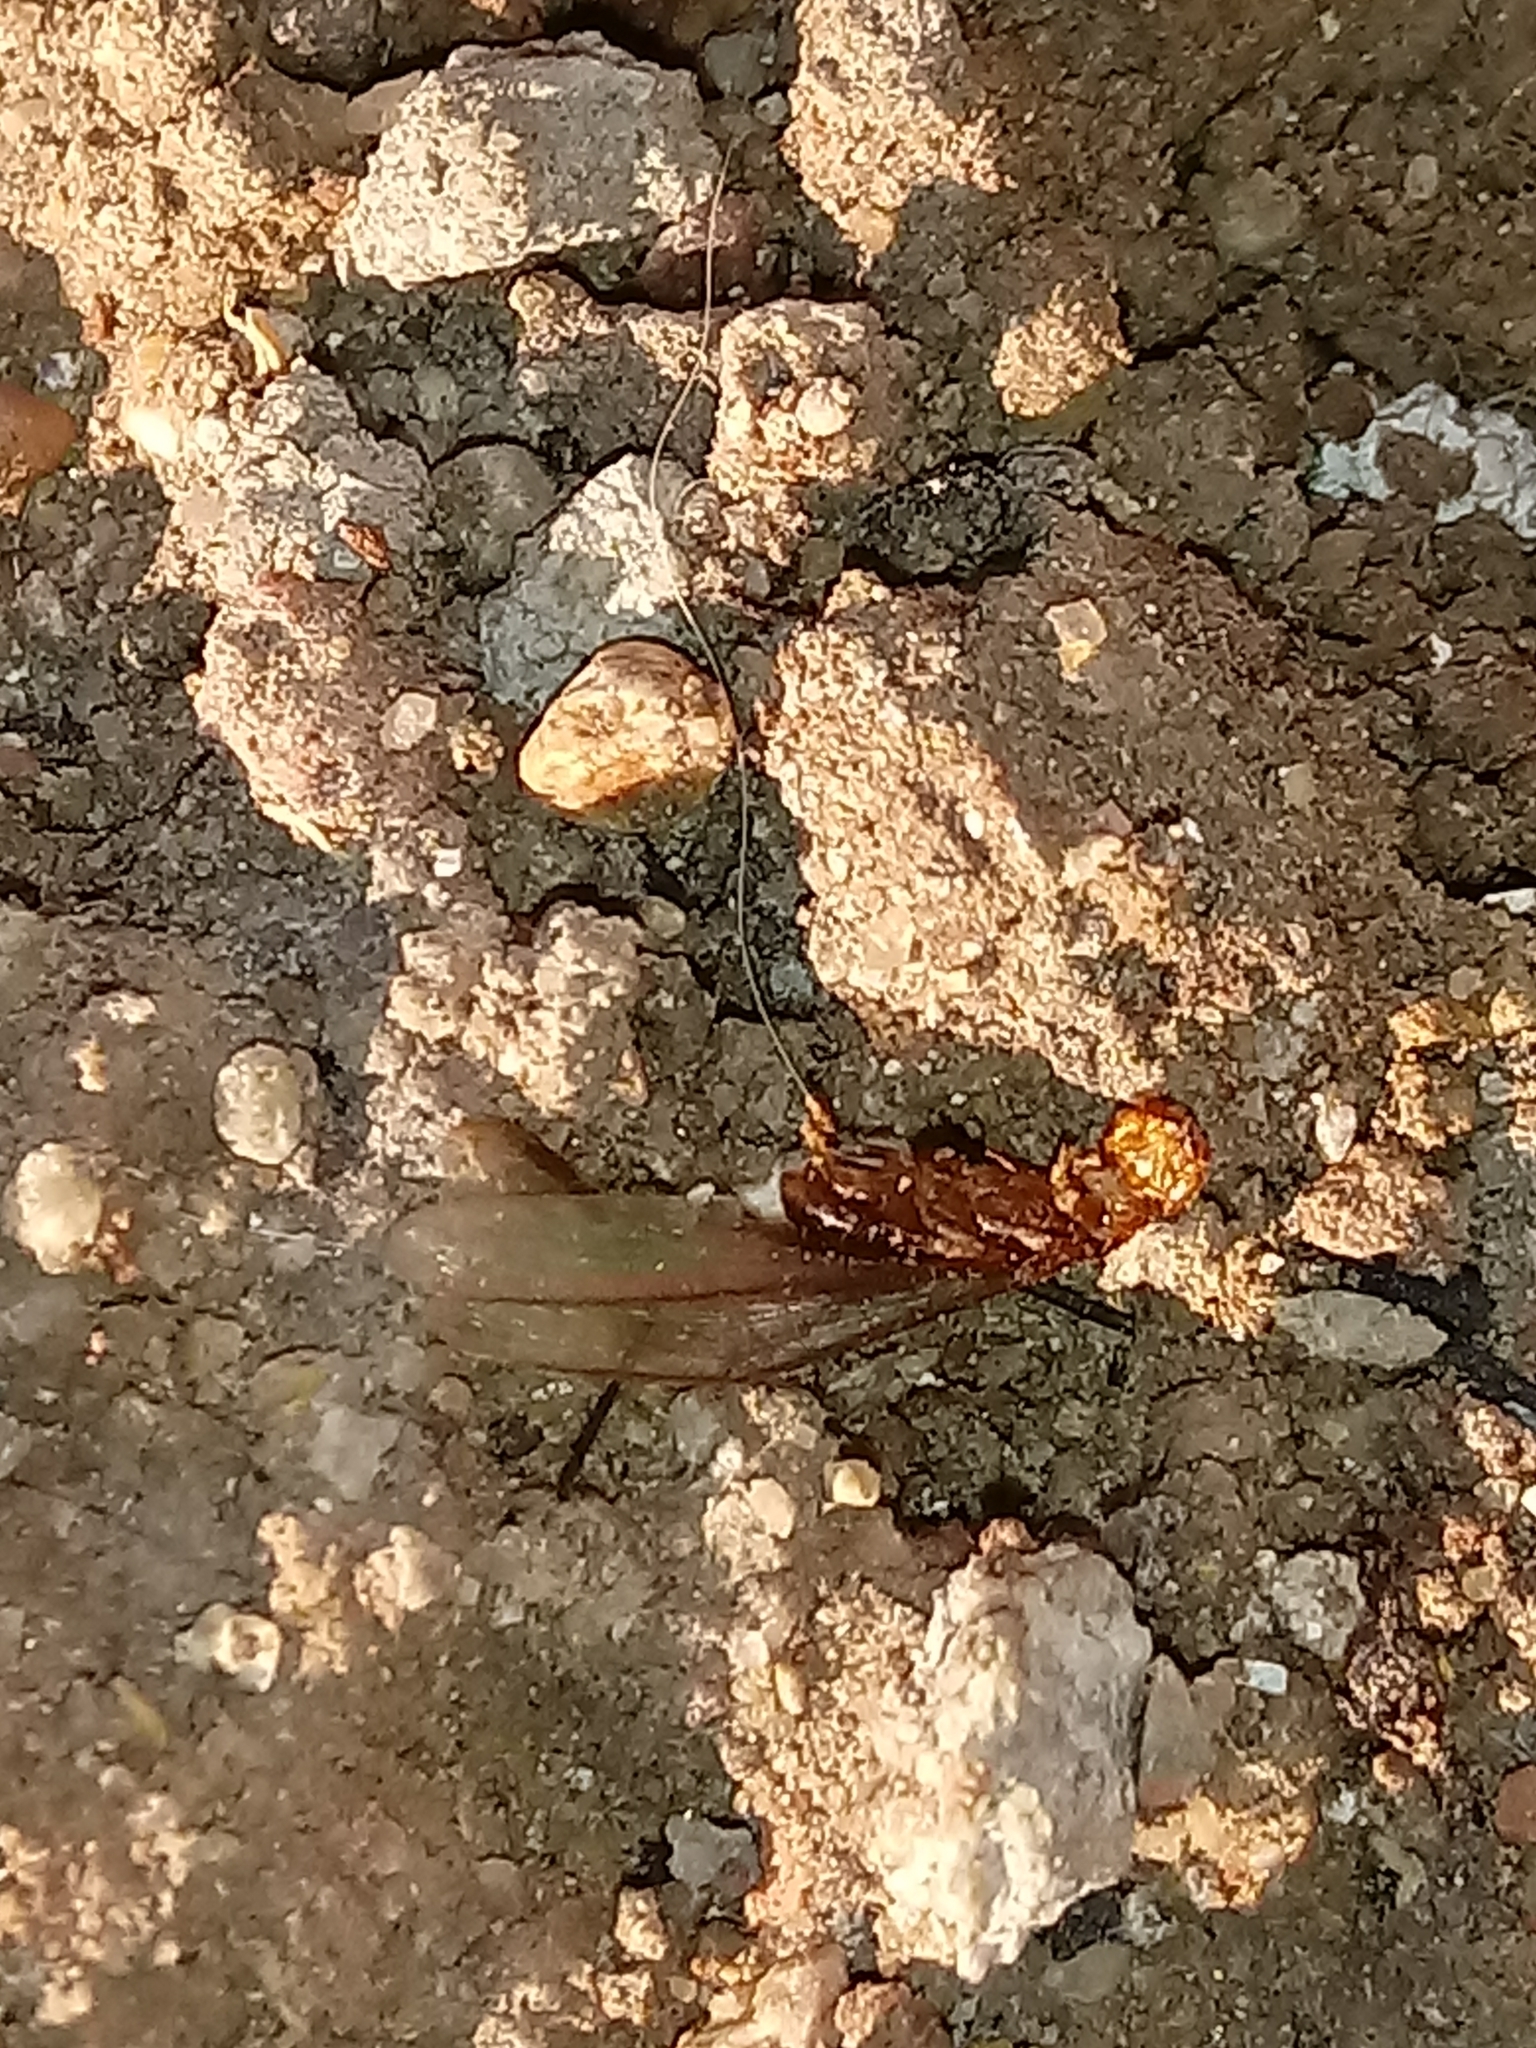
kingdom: Animalia
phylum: Arthropoda
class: Insecta
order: Blattodea
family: Kalotermitidae
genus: Incisitermes
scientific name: Incisitermes minor
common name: Termite
